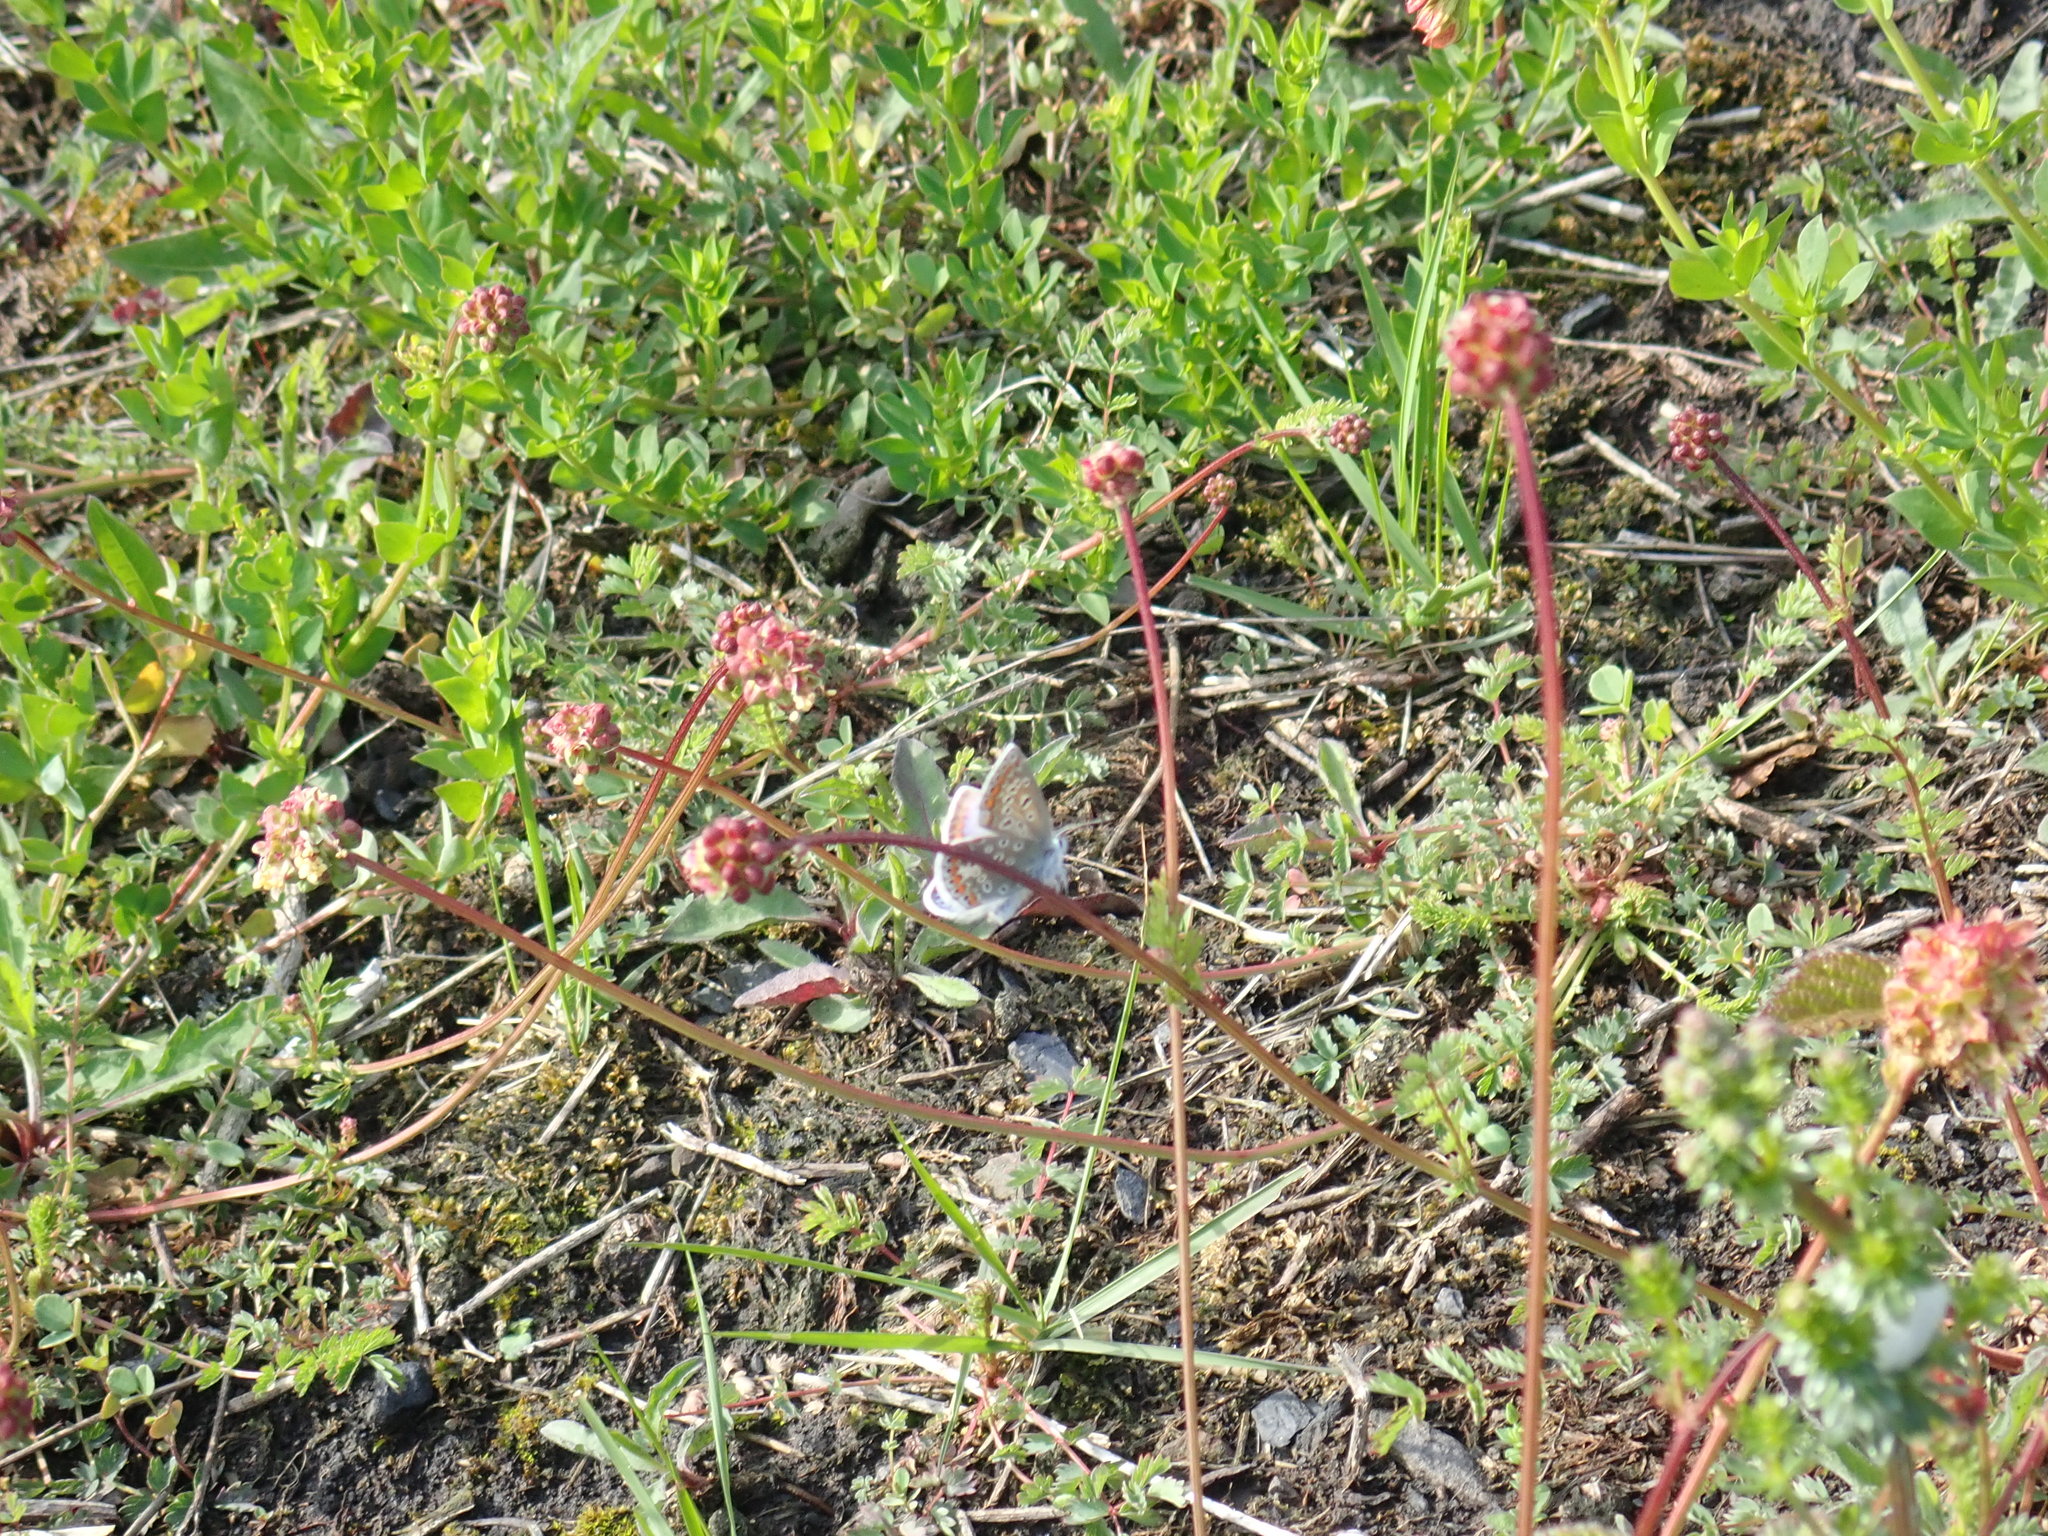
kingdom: Animalia
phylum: Arthropoda
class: Insecta
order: Lepidoptera
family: Lycaenidae
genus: Polyommatus
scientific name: Polyommatus icarus
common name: Common blue
